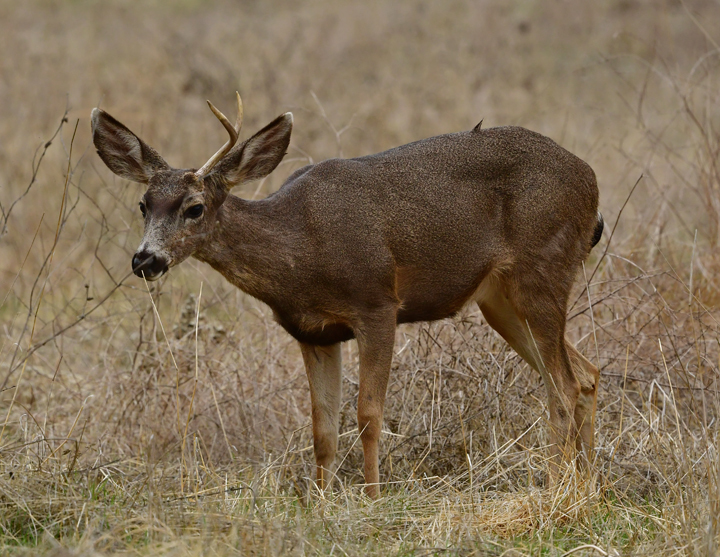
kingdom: Animalia
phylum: Chordata
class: Mammalia
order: Artiodactyla
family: Cervidae
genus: Odocoileus
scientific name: Odocoileus hemionus
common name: Mule deer
